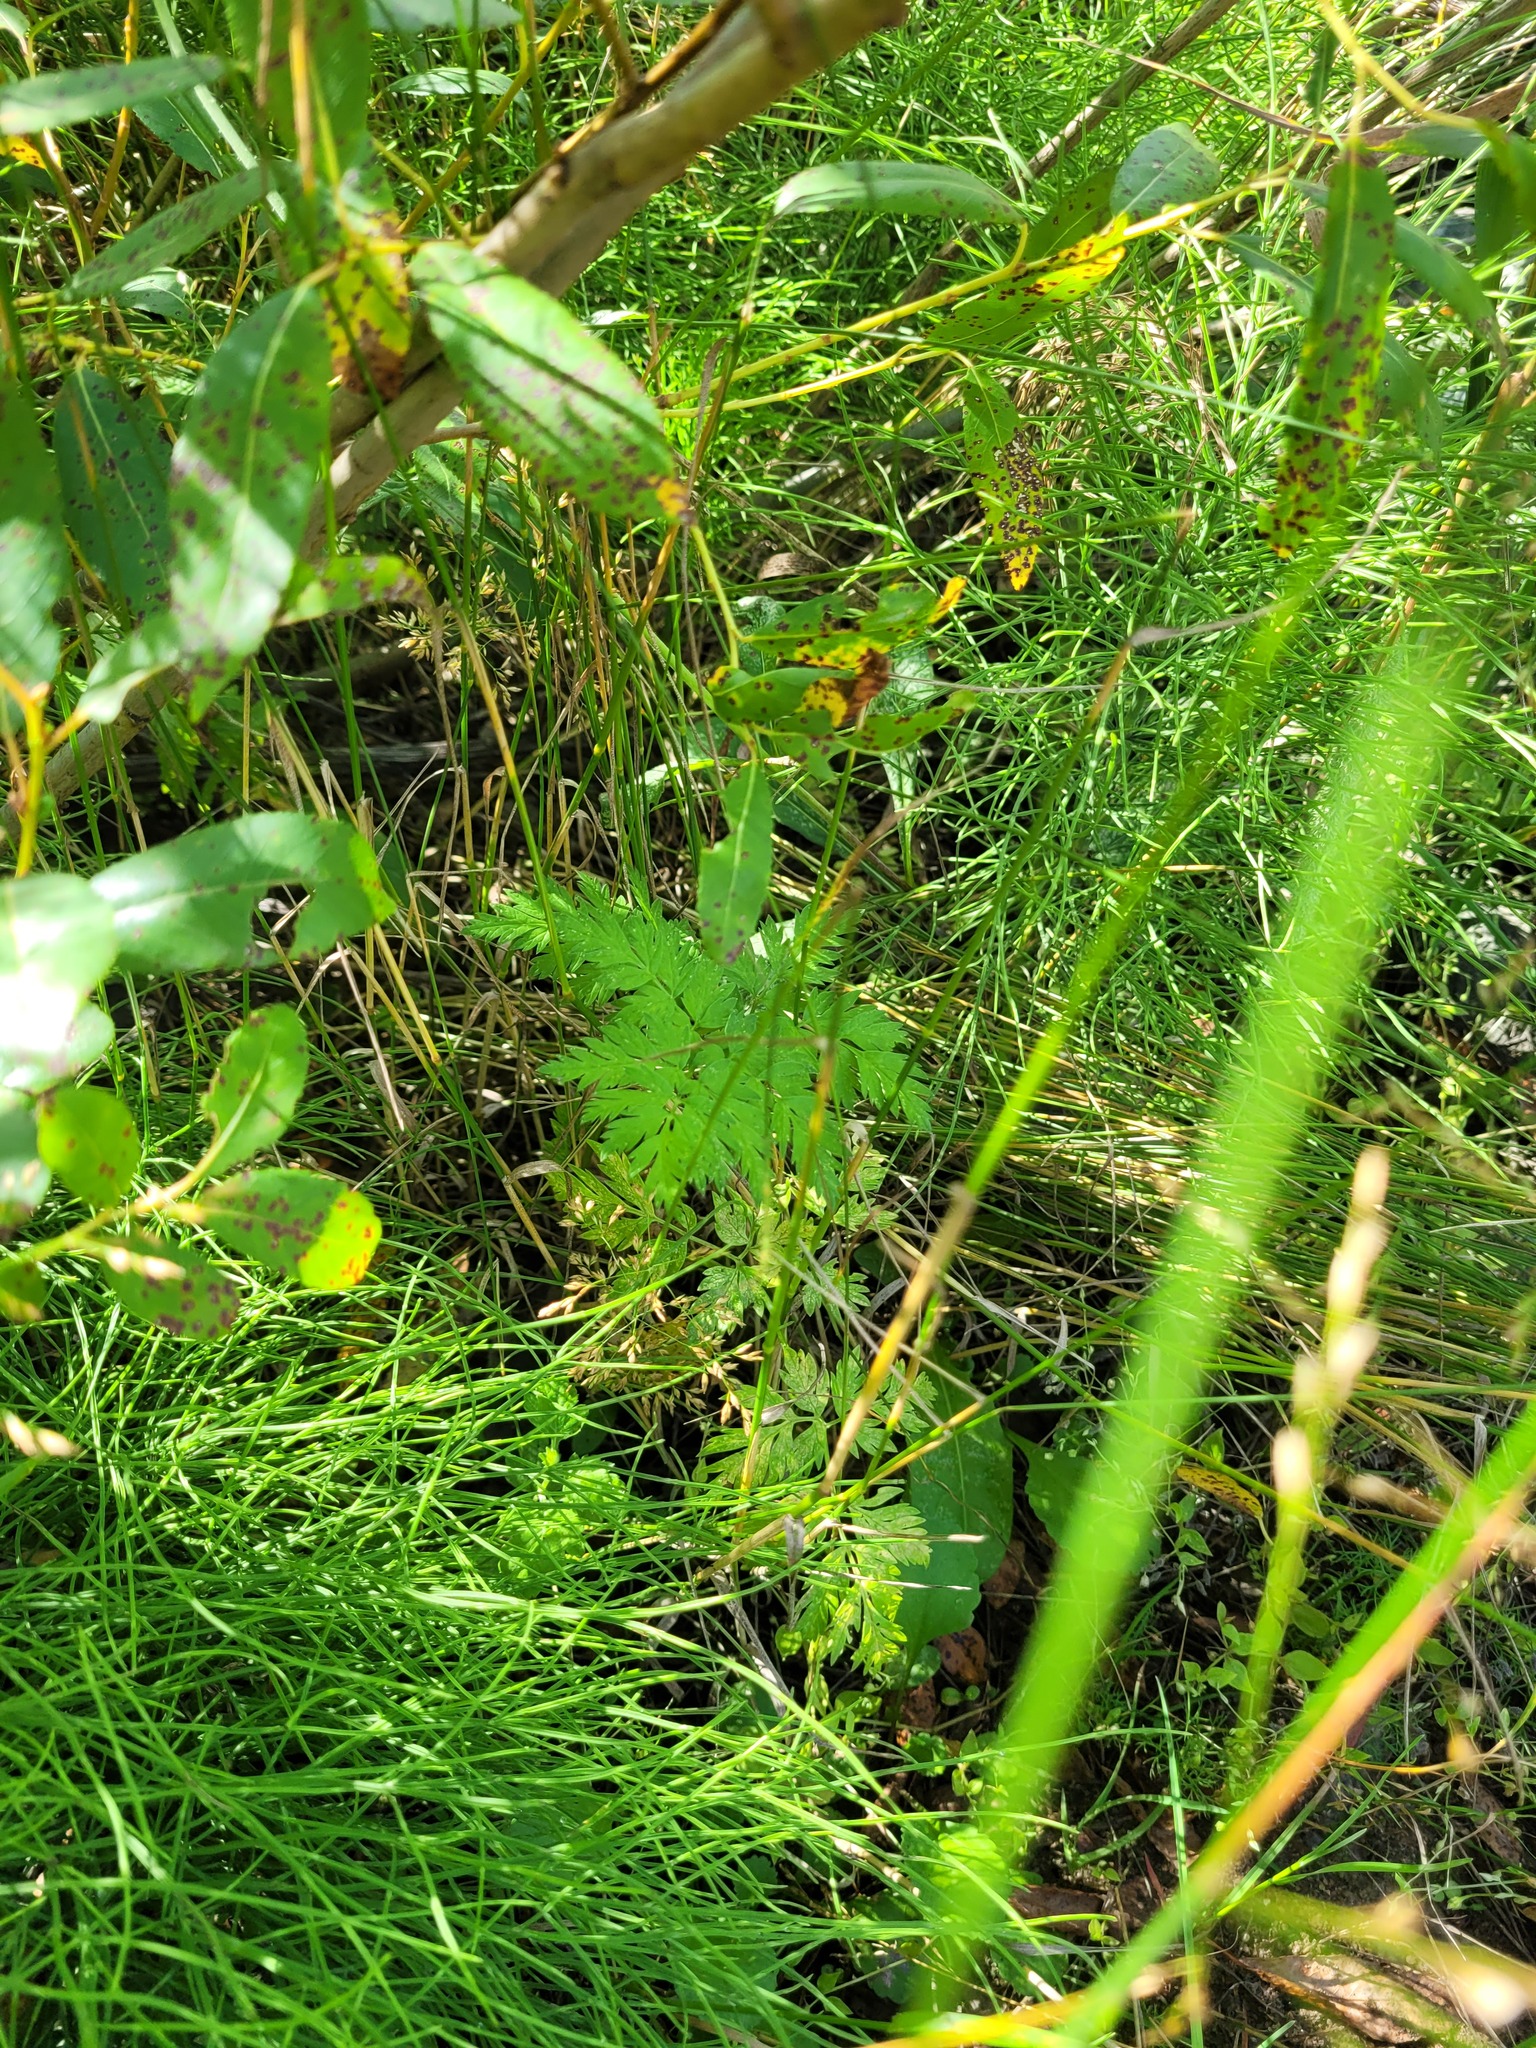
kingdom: Plantae
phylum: Tracheophyta
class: Magnoliopsida
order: Apiales
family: Apiaceae
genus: Anthriscus
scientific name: Anthriscus sylvestris
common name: Cow parsley
